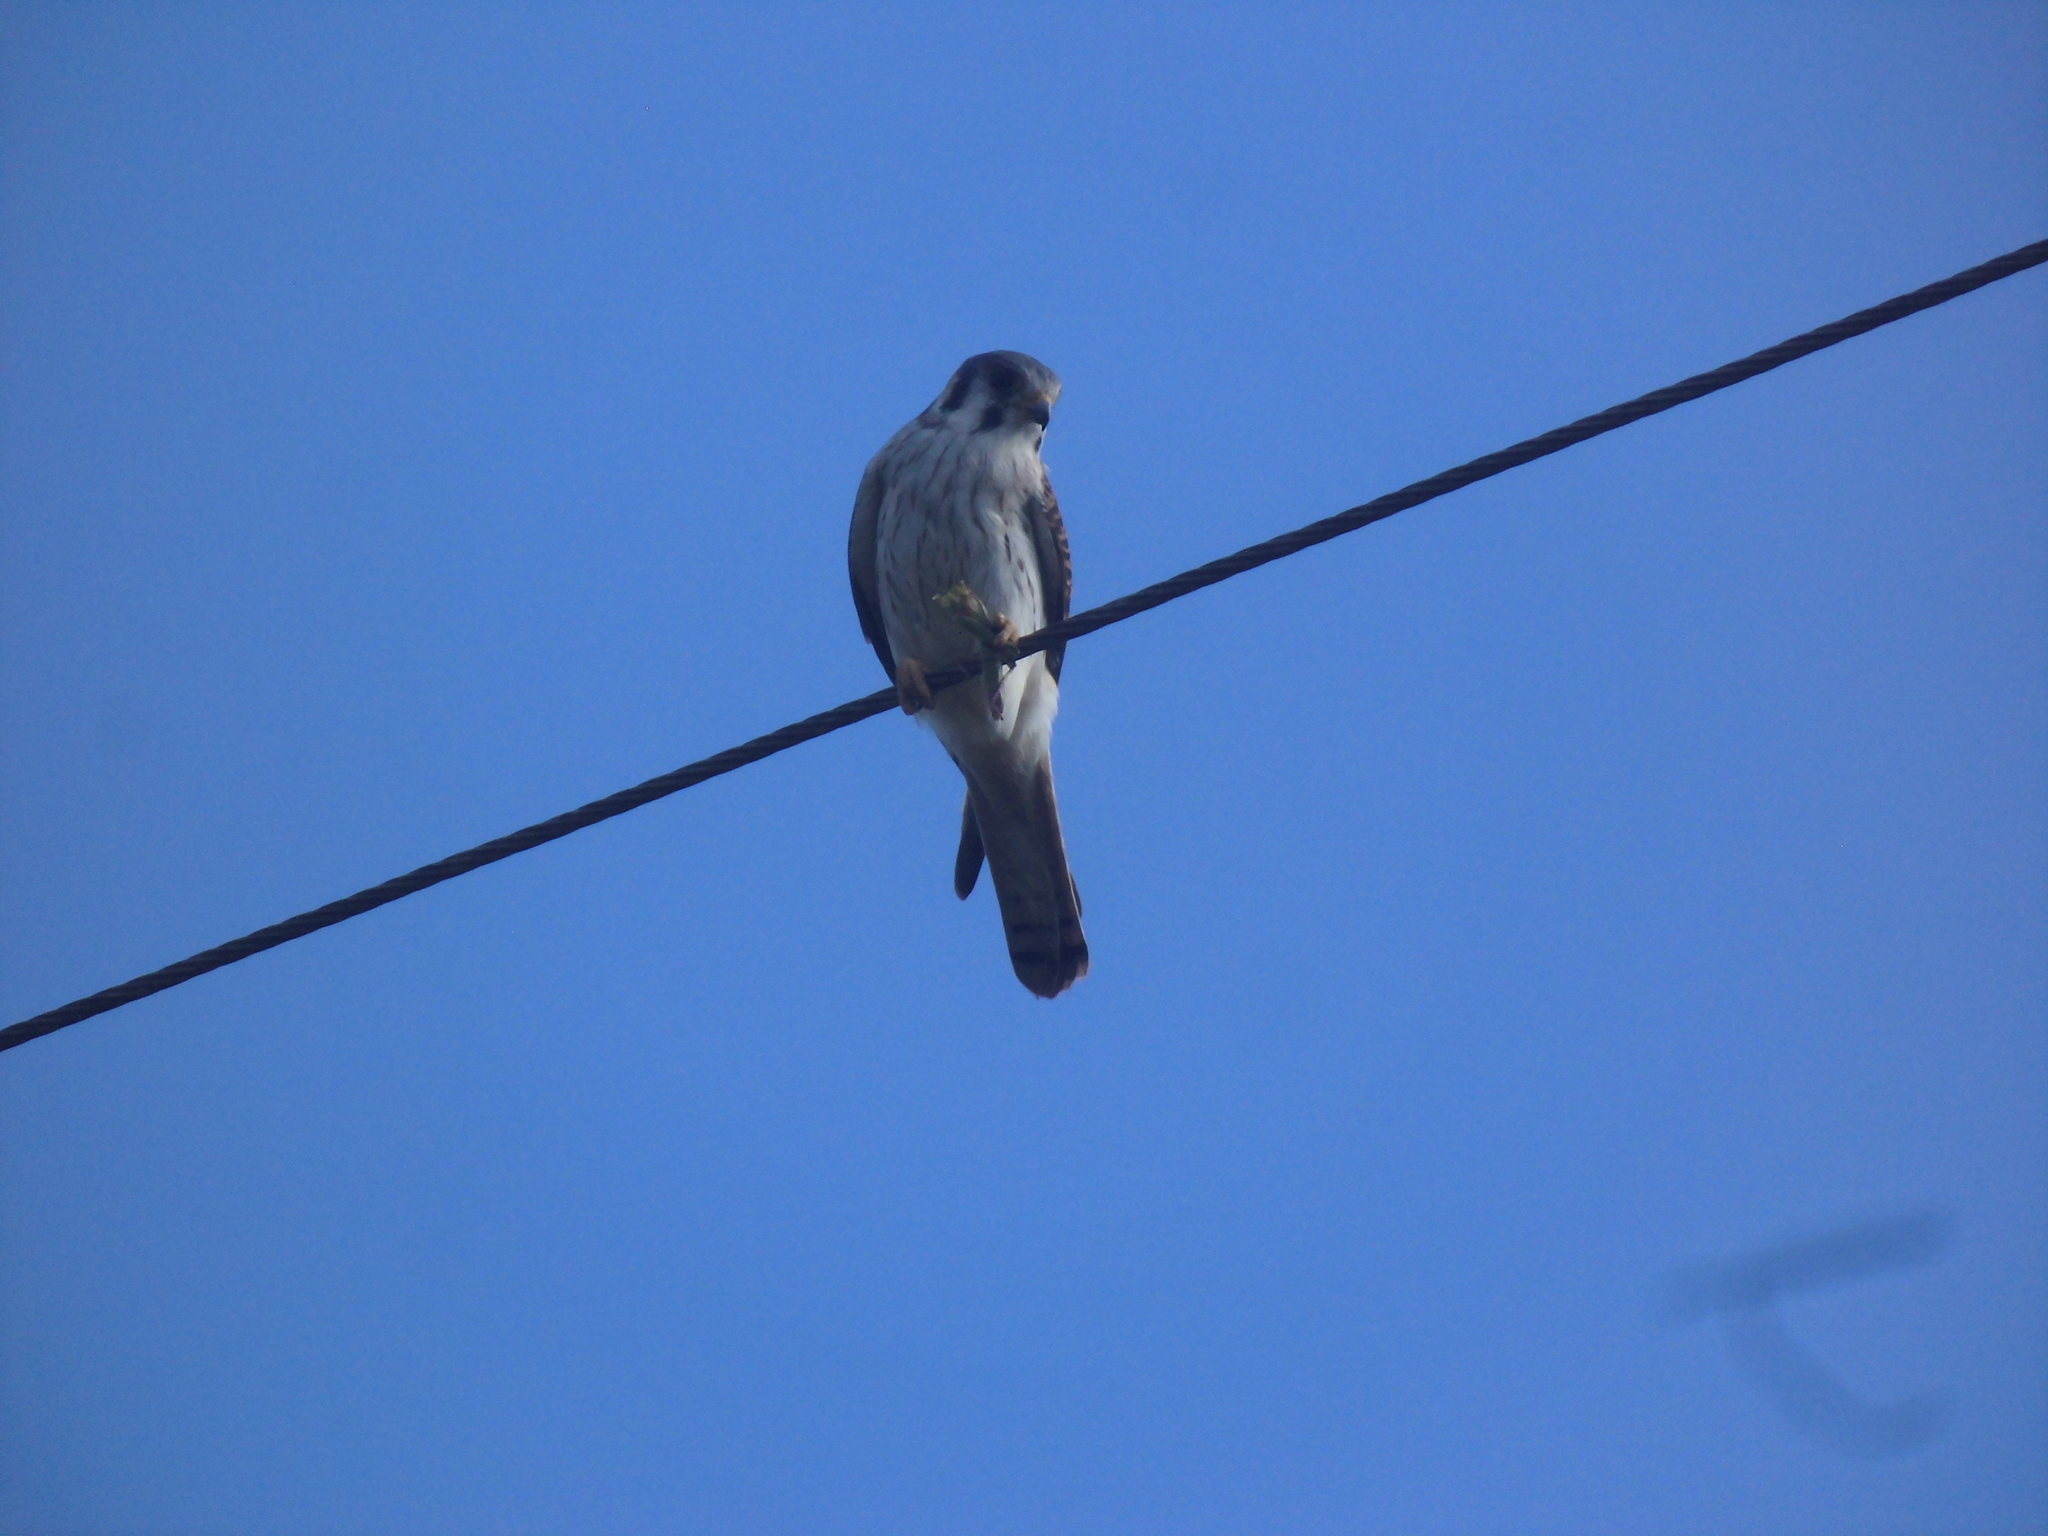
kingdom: Animalia
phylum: Chordata
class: Aves
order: Falconiformes
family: Falconidae
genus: Falco
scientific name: Falco sparverius
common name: American kestrel
